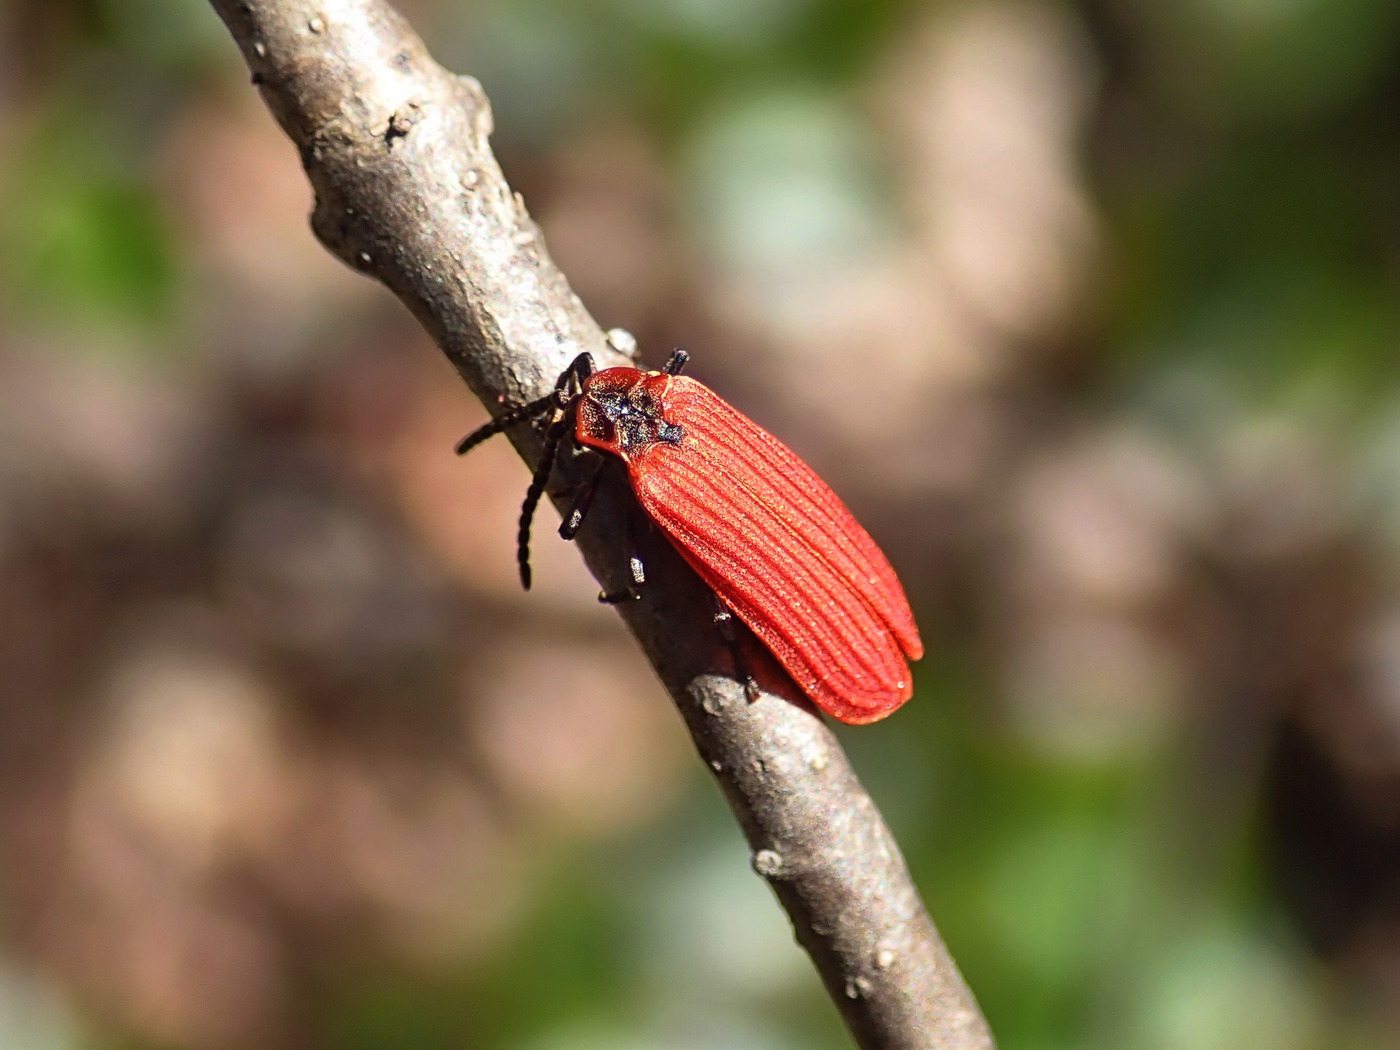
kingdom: Animalia
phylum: Arthropoda
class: Insecta
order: Coleoptera
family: Lycidae
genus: Dictyoptera
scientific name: Dictyoptera aurora
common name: Golden net-winged beetle
